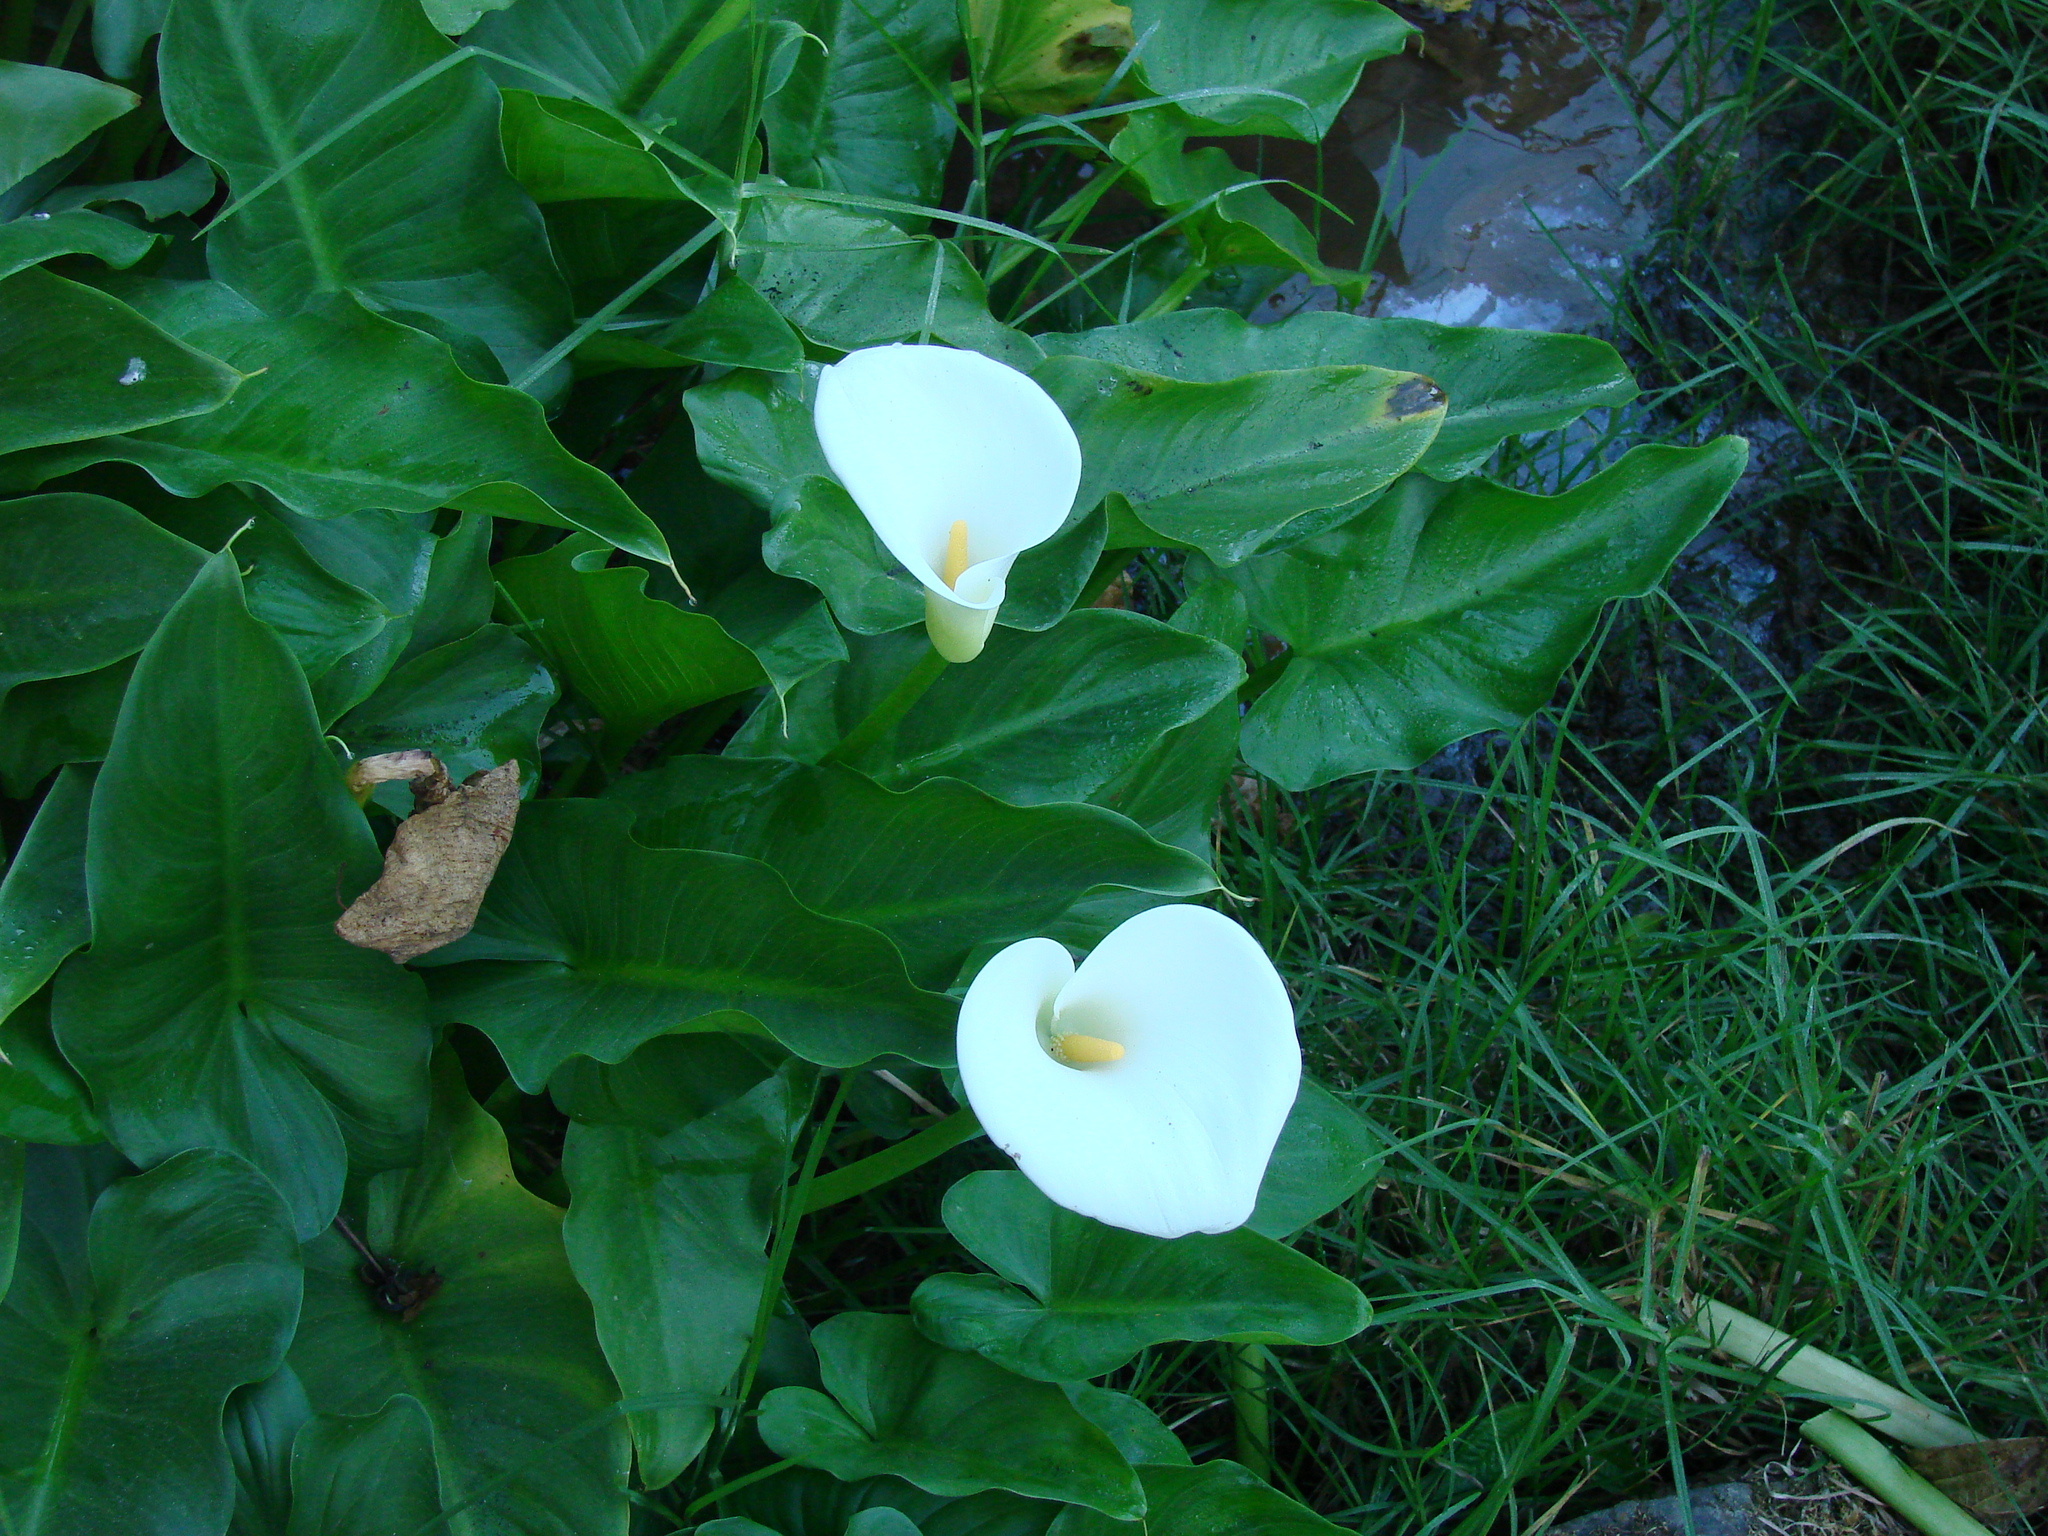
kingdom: Plantae
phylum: Tracheophyta
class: Liliopsida
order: Alismatales
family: Araceae
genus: Zantedeschia
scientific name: Zantedeschia aethiopica
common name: Altar-lily
